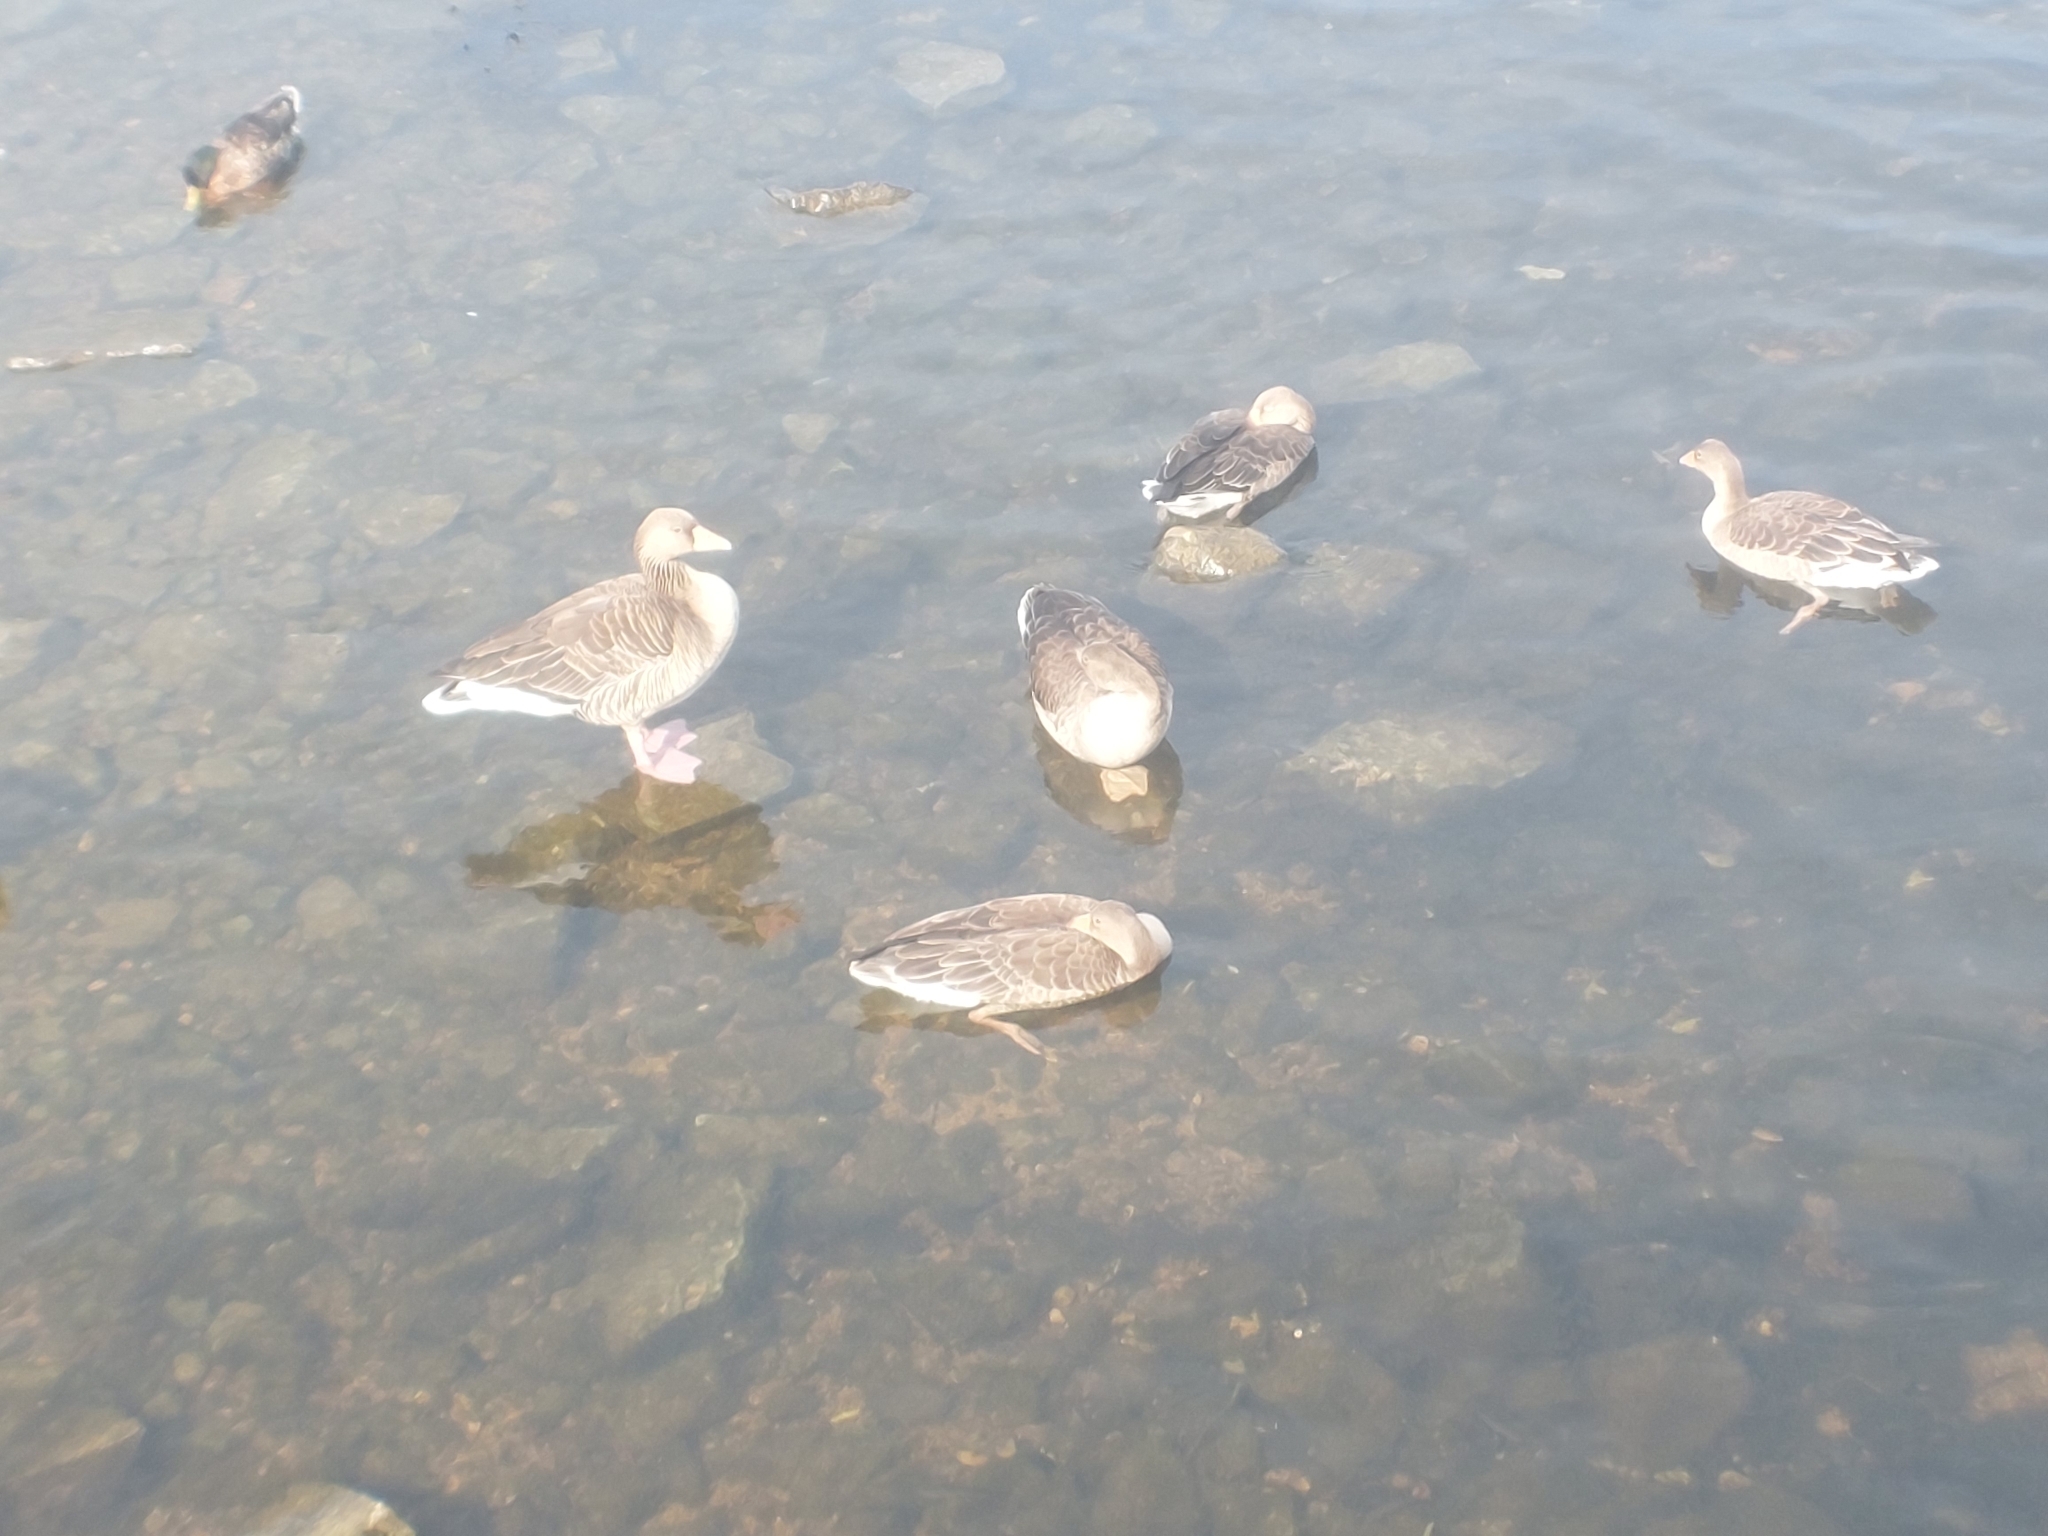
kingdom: Animalia
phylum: Chordata
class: Aves
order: Anseriformes
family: Anatidae
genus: Anser
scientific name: Anser anser
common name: Greylag goose
